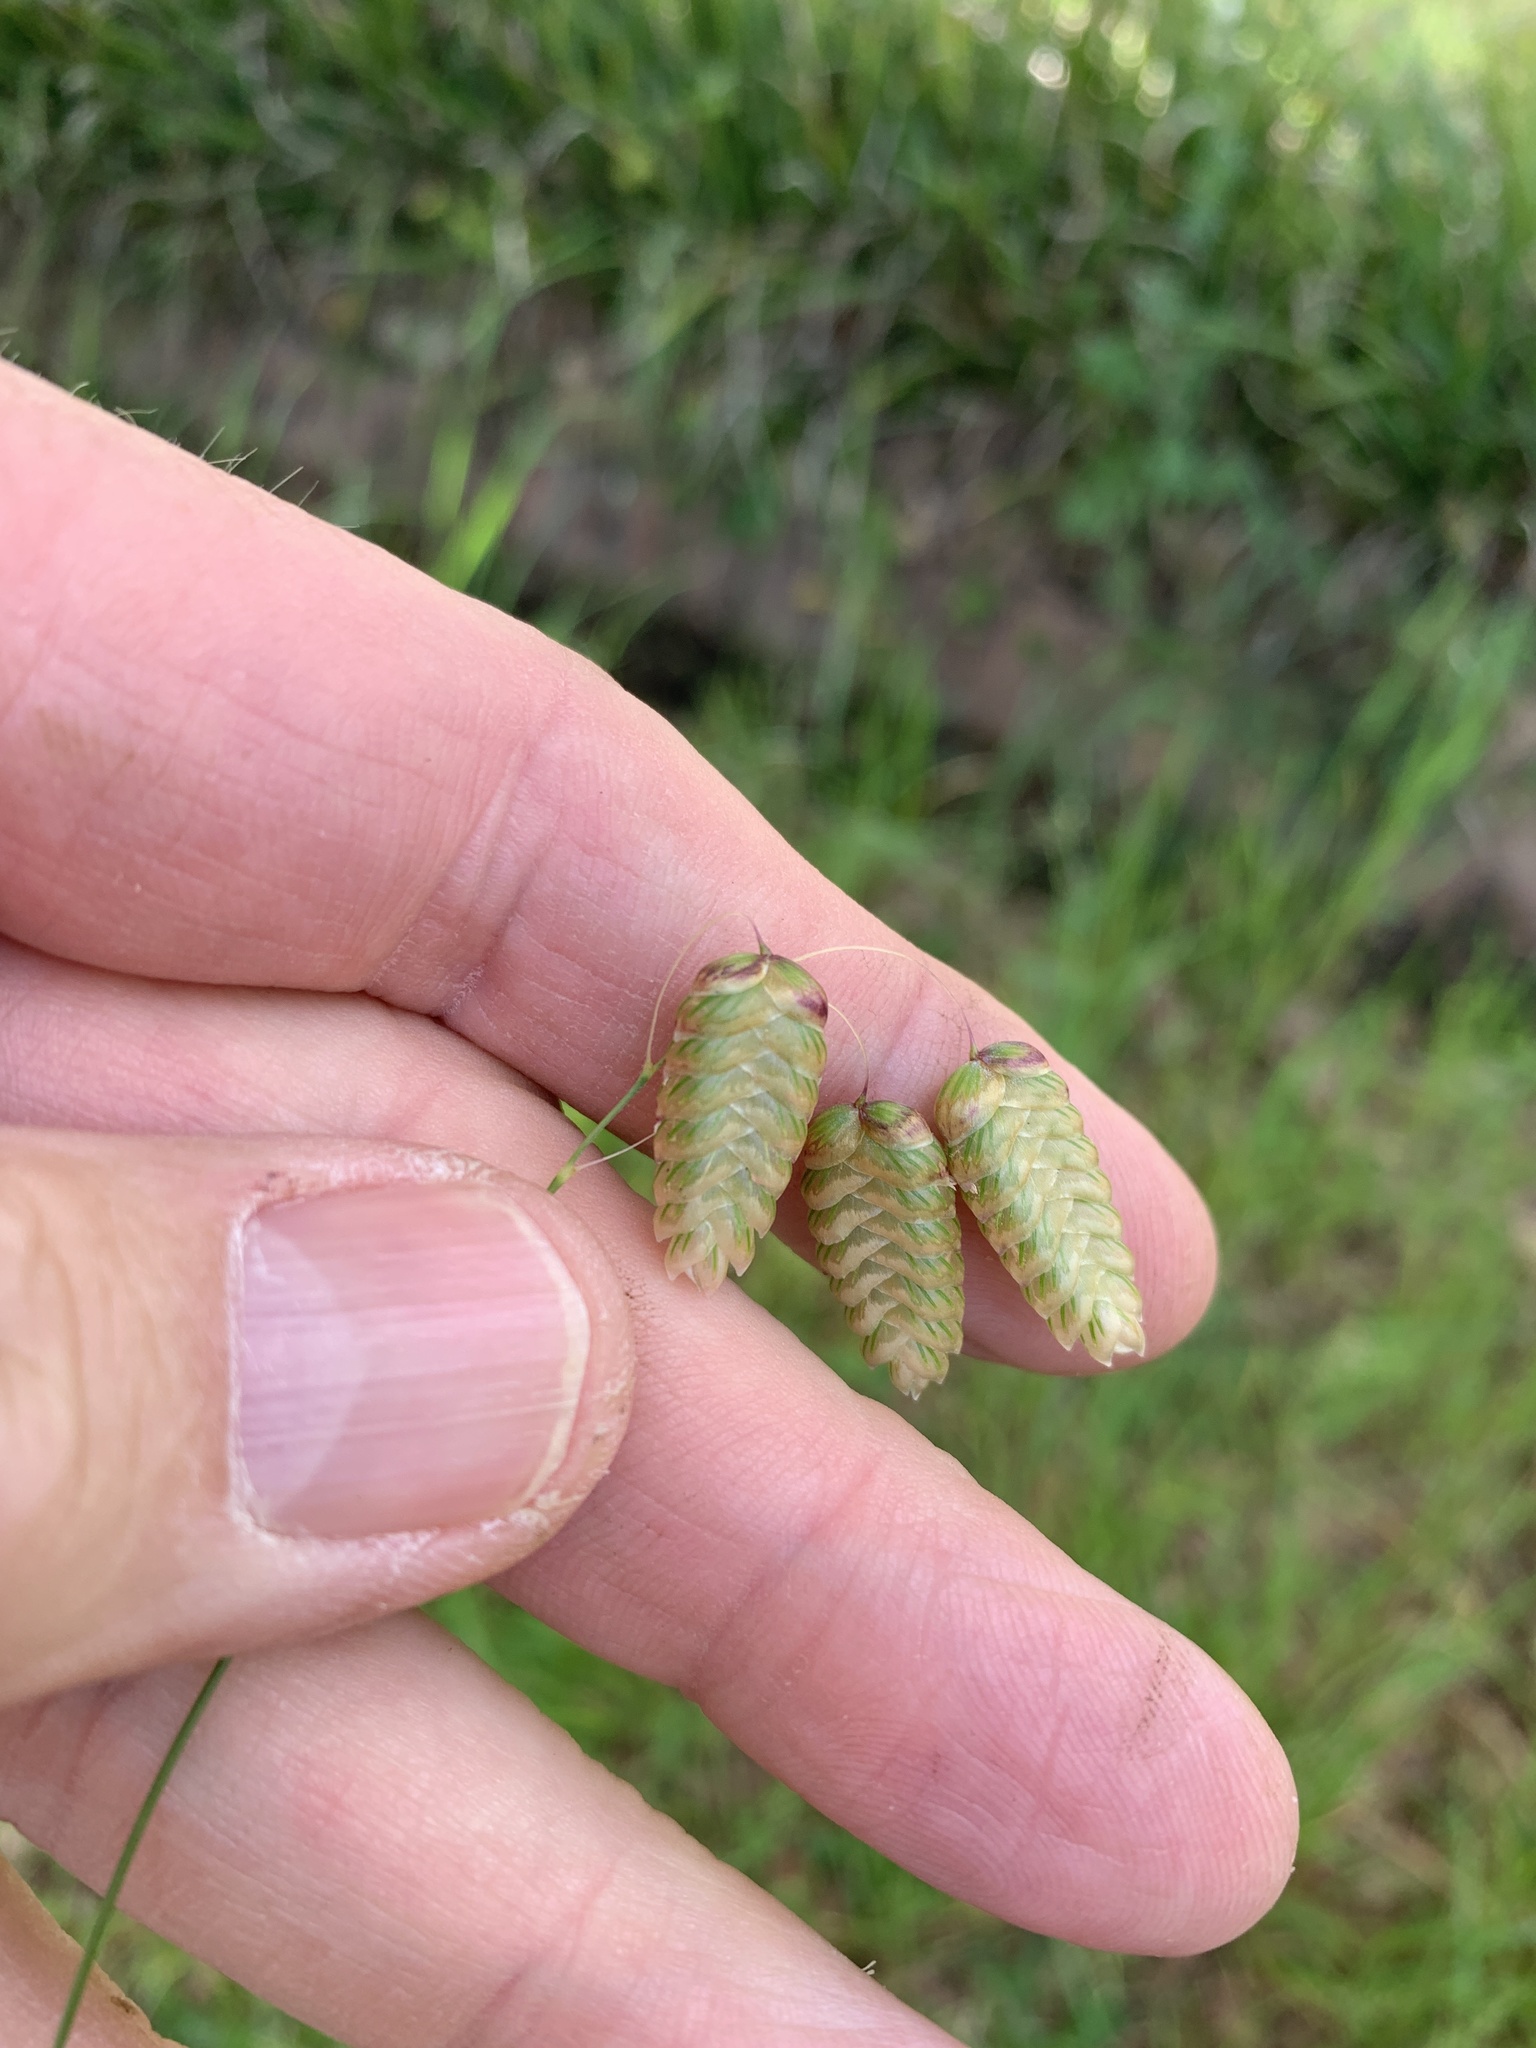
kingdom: Plantae
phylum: Tracheophyta
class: Liliopsida
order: Poales
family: Poaceae
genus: Briza
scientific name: Briza maxima
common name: Big quakinggrass
